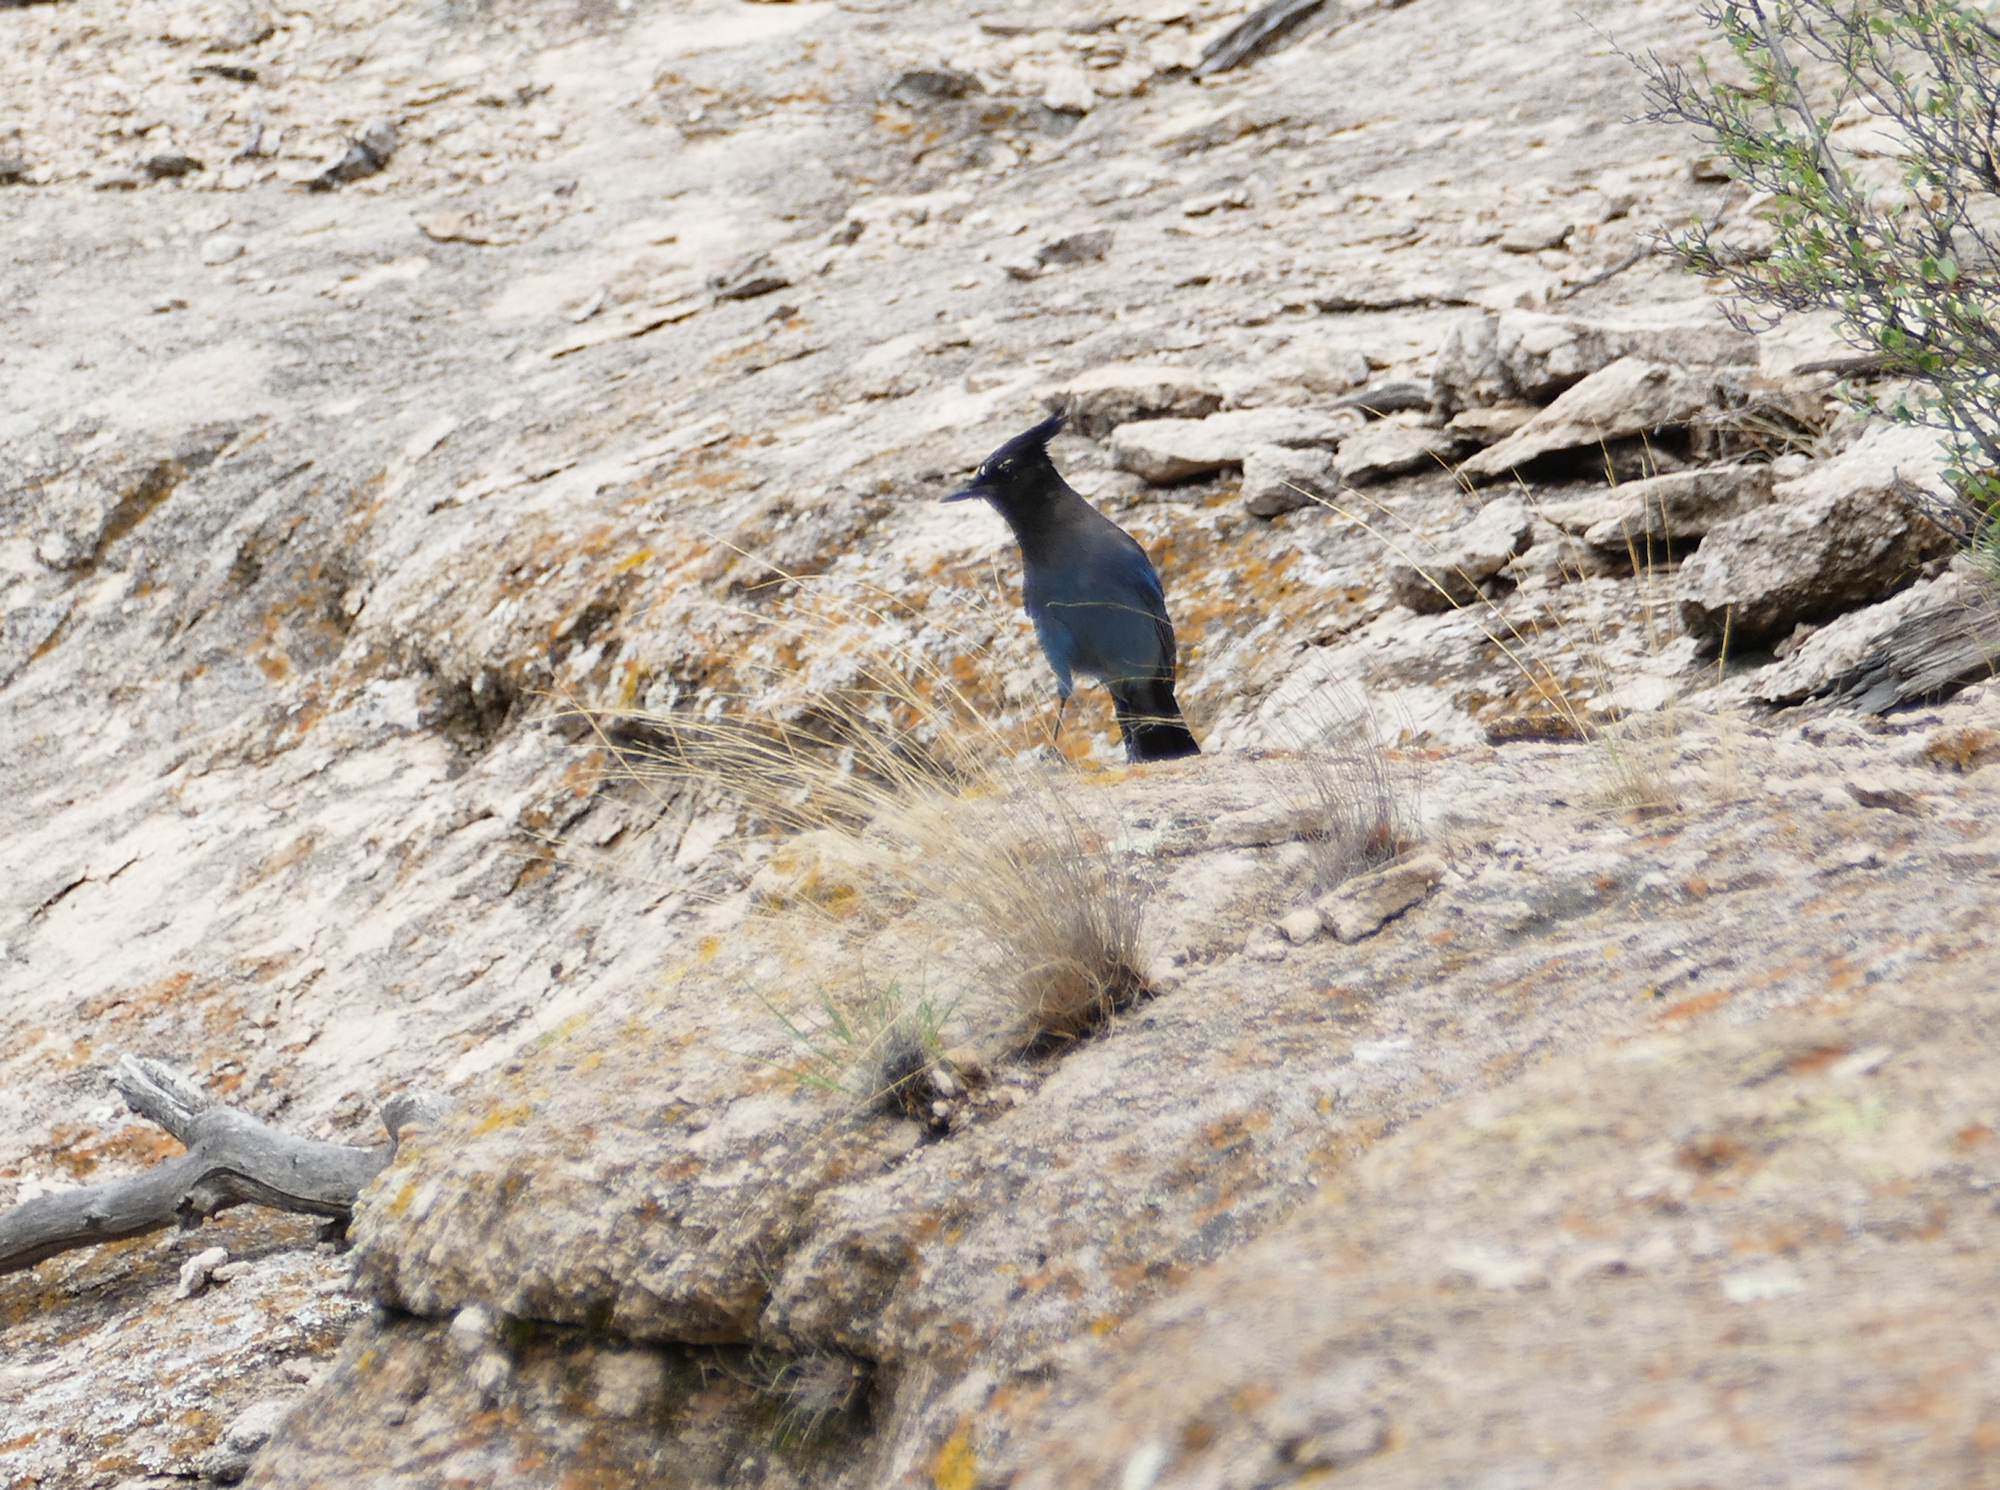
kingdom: Animalia
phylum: Chordata
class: Aves
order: Passeriformes
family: Corvidae
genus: Cyanocitta
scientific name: Cyanocitta stelleri
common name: Steller's jay
